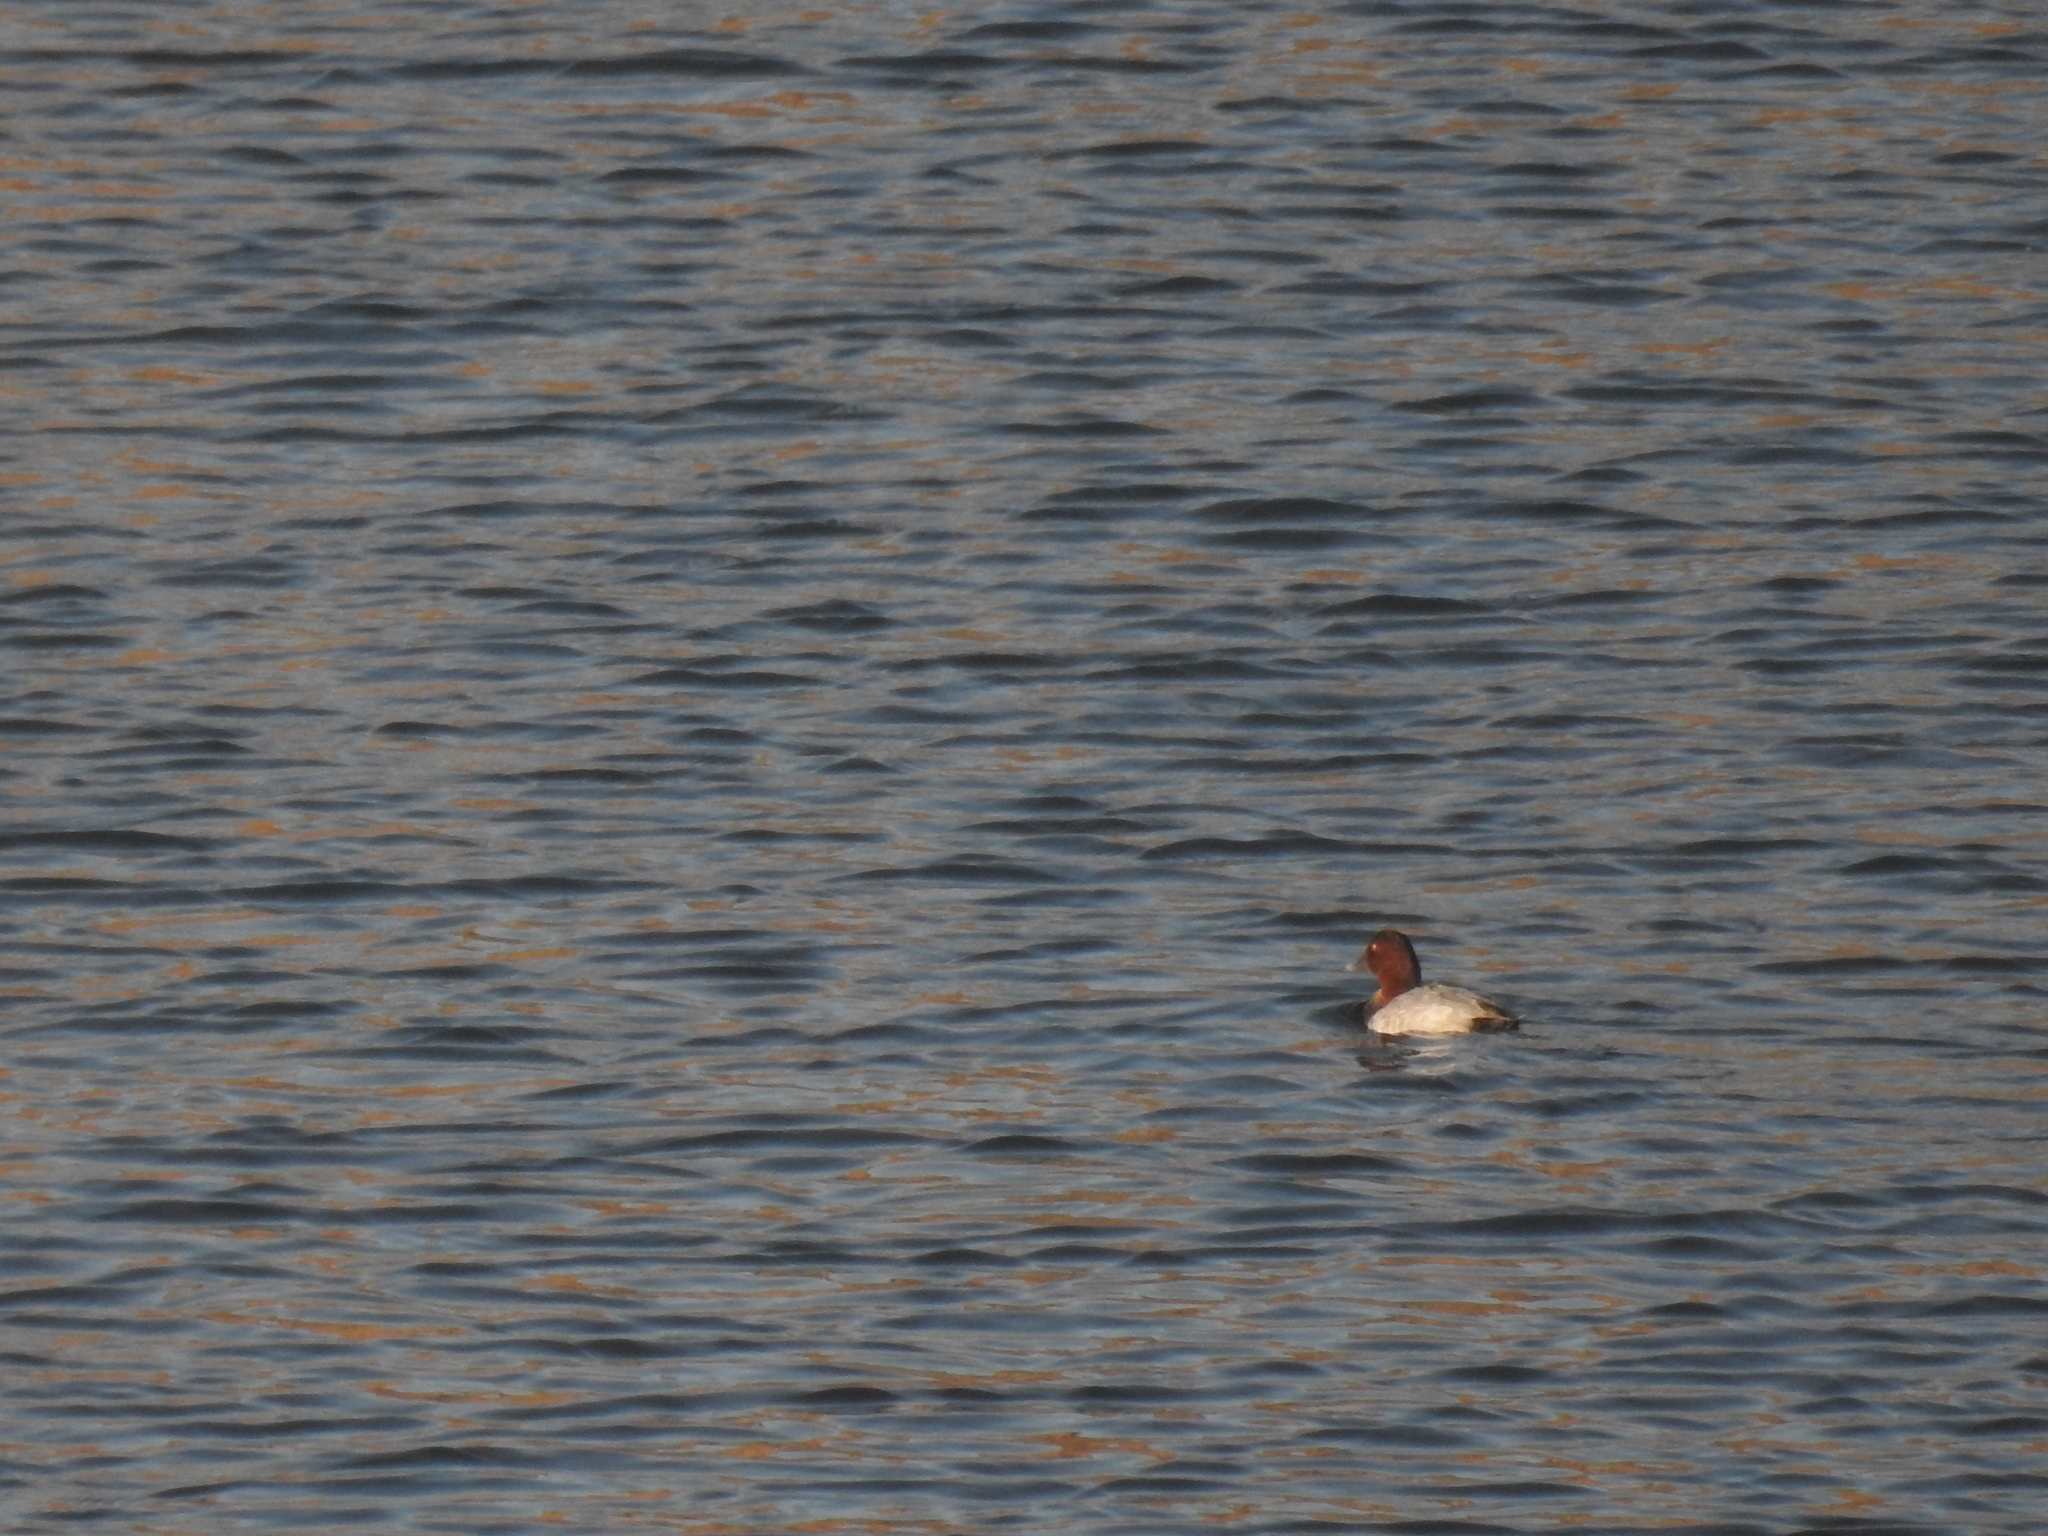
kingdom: Animalia
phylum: Chordata
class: Aves
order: Anseriformes
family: Anatidae
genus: Aythya
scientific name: Aythya ferina
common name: Common pochard
